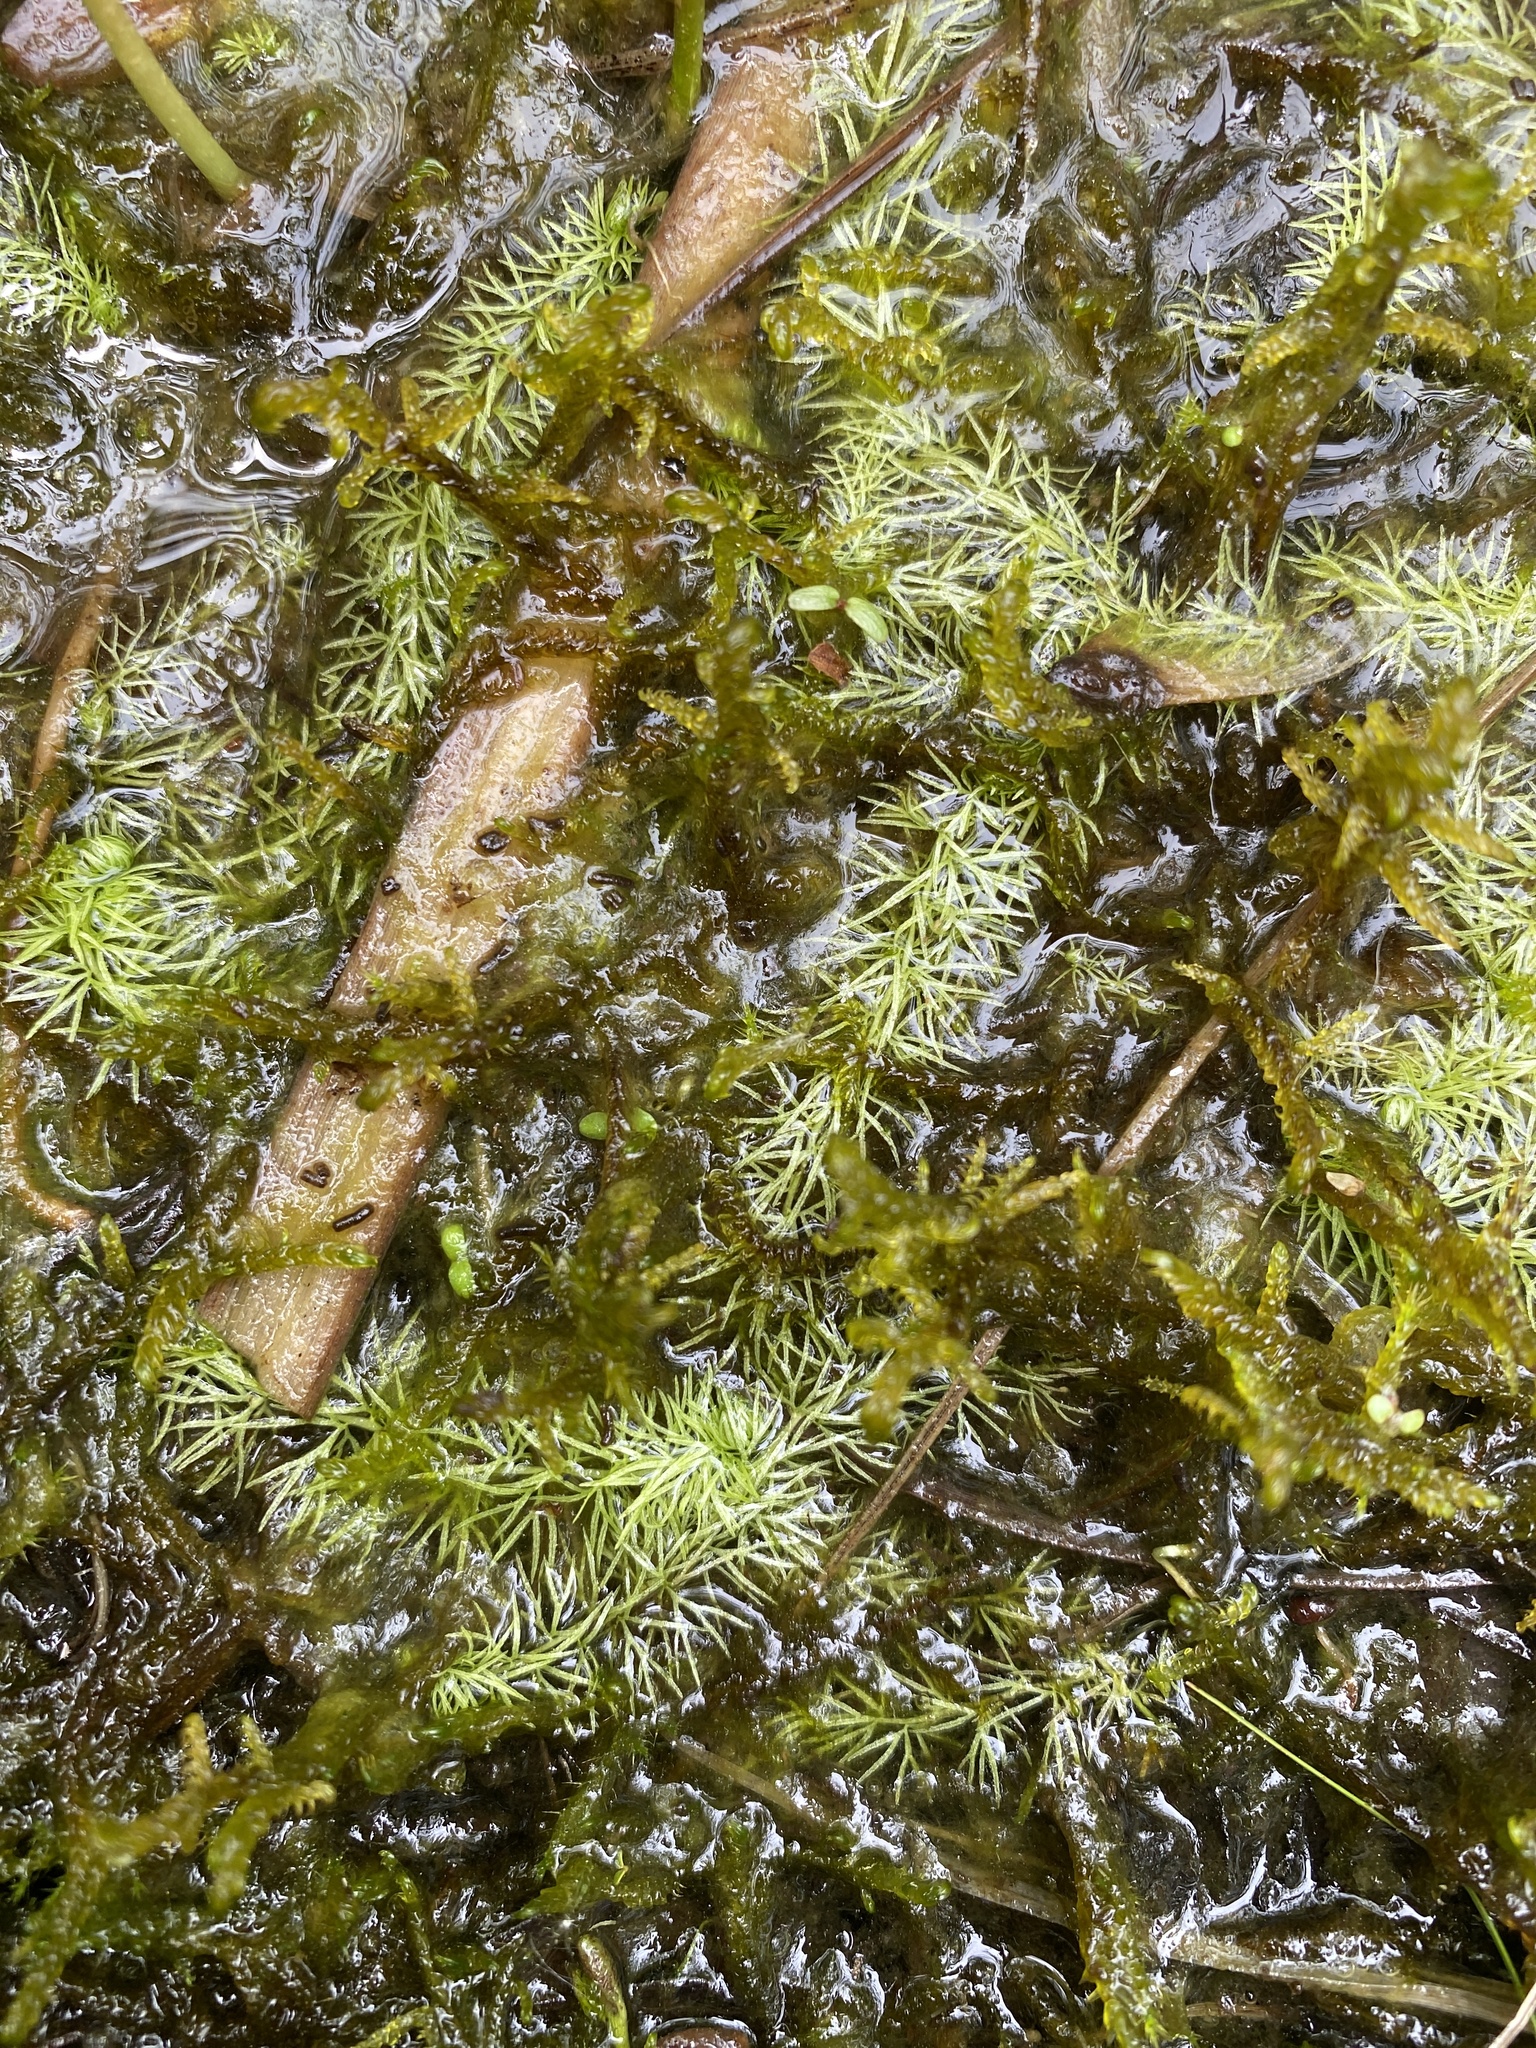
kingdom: Plantae
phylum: Tracheophyta
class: Magnoliopsida
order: Lamiales
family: Lentibulariaceae
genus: Utricularia
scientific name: Utricularia intermedia
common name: Intermediate bladderwort
